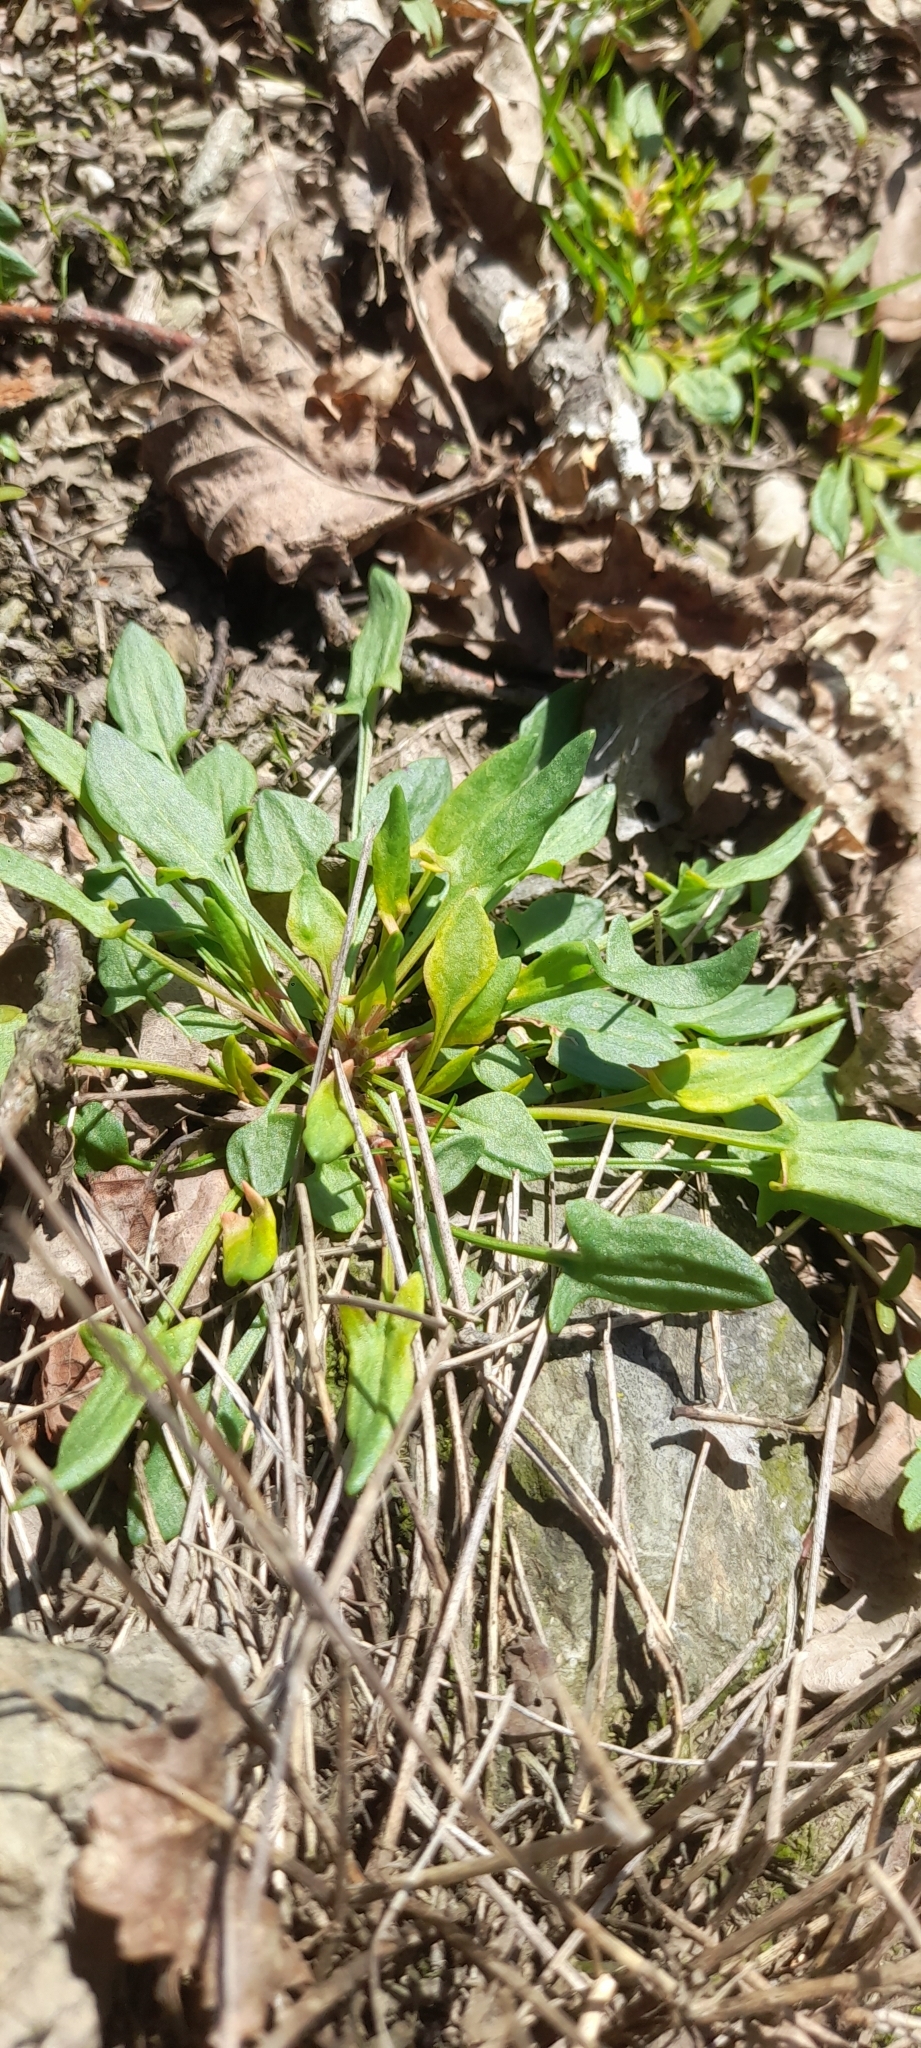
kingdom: Plantae
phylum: Tracheophyta
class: Magnoliopsida
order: Caryophyllales
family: Polygonaceae
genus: Rumex
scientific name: Rumex acetosella
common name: Common sheep sorrel
